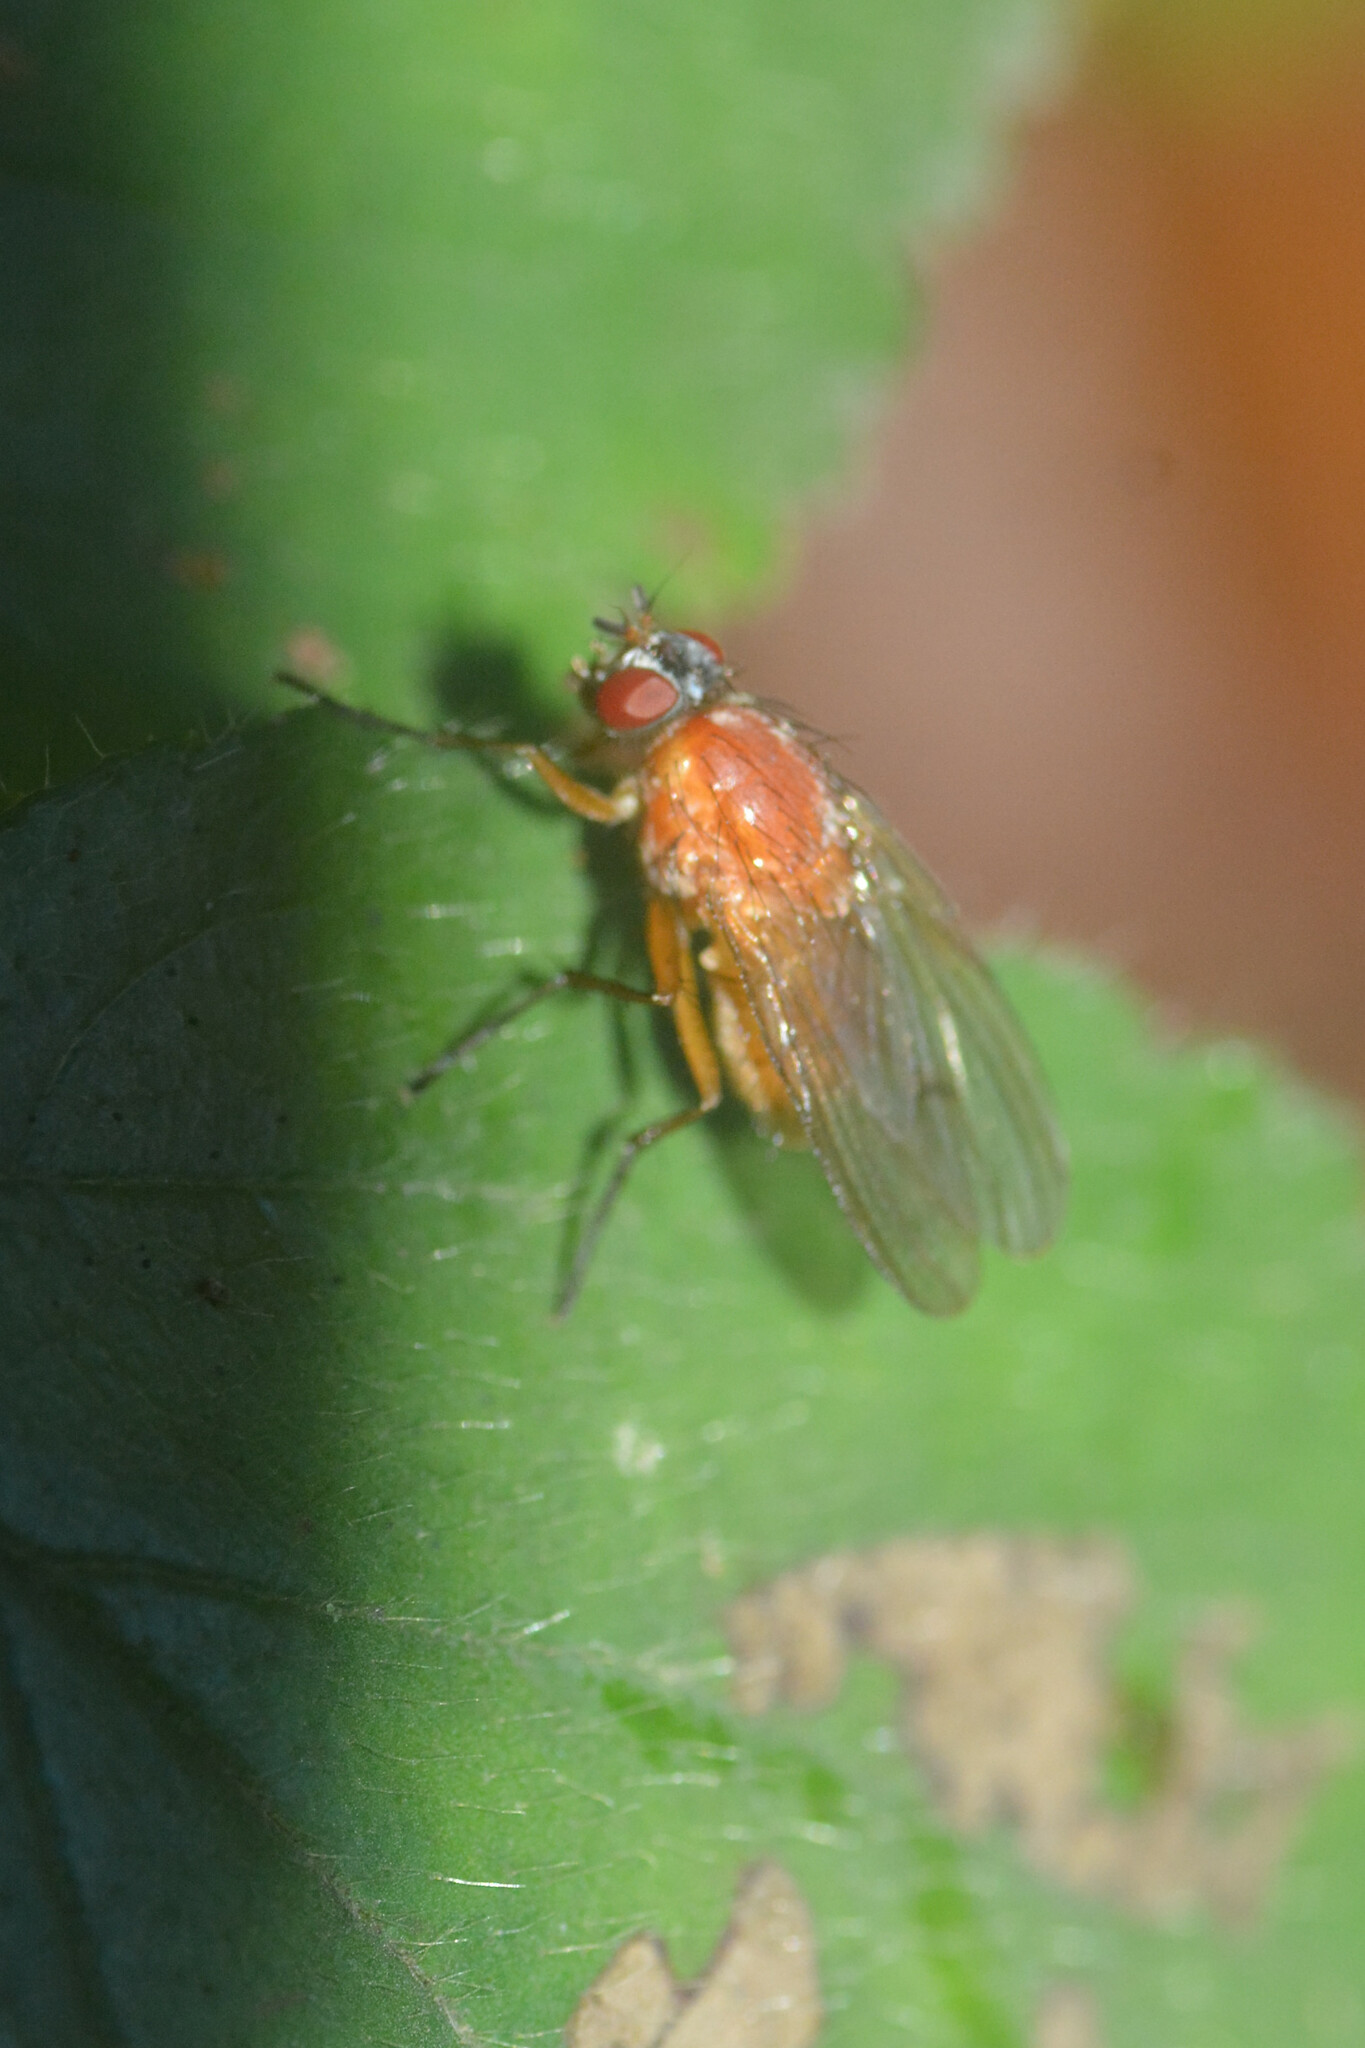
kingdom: Animalia
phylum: Arthropoda
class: Insecta
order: Diptera
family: Muscidae
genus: Thricops
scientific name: Thricops diaphanus
